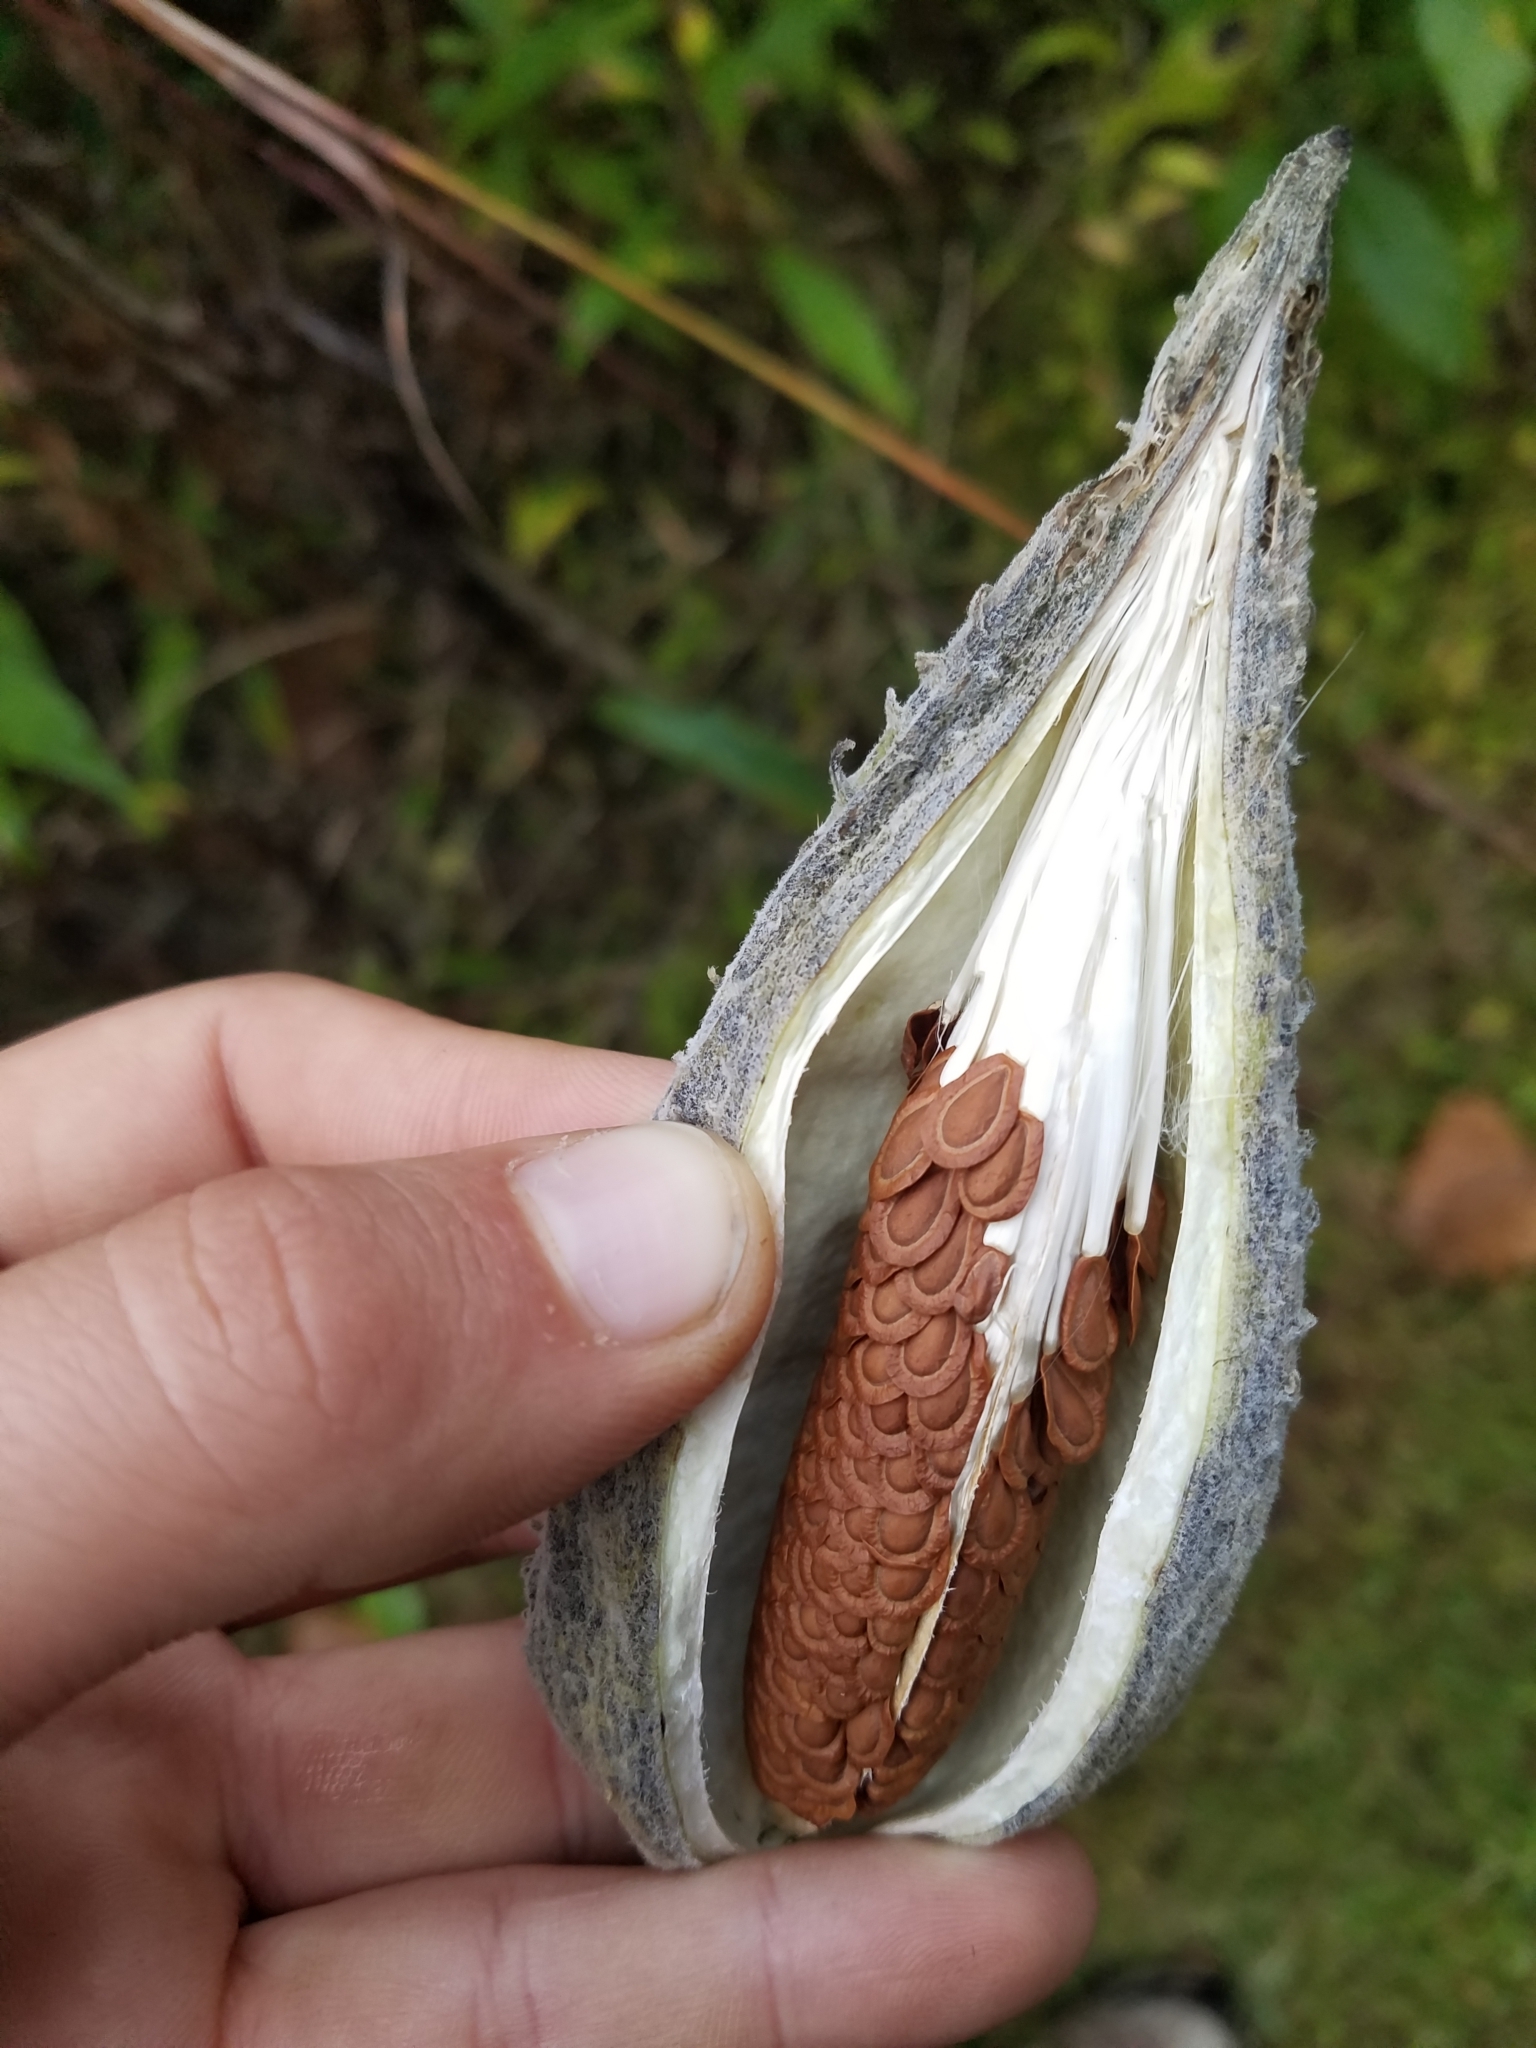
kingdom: Plantae
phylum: Tracheophyta
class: Magnoliopsida
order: Gentianales
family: Apocynaceae
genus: Asclepias
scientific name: Asclepias syriaca
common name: Common milkweed
